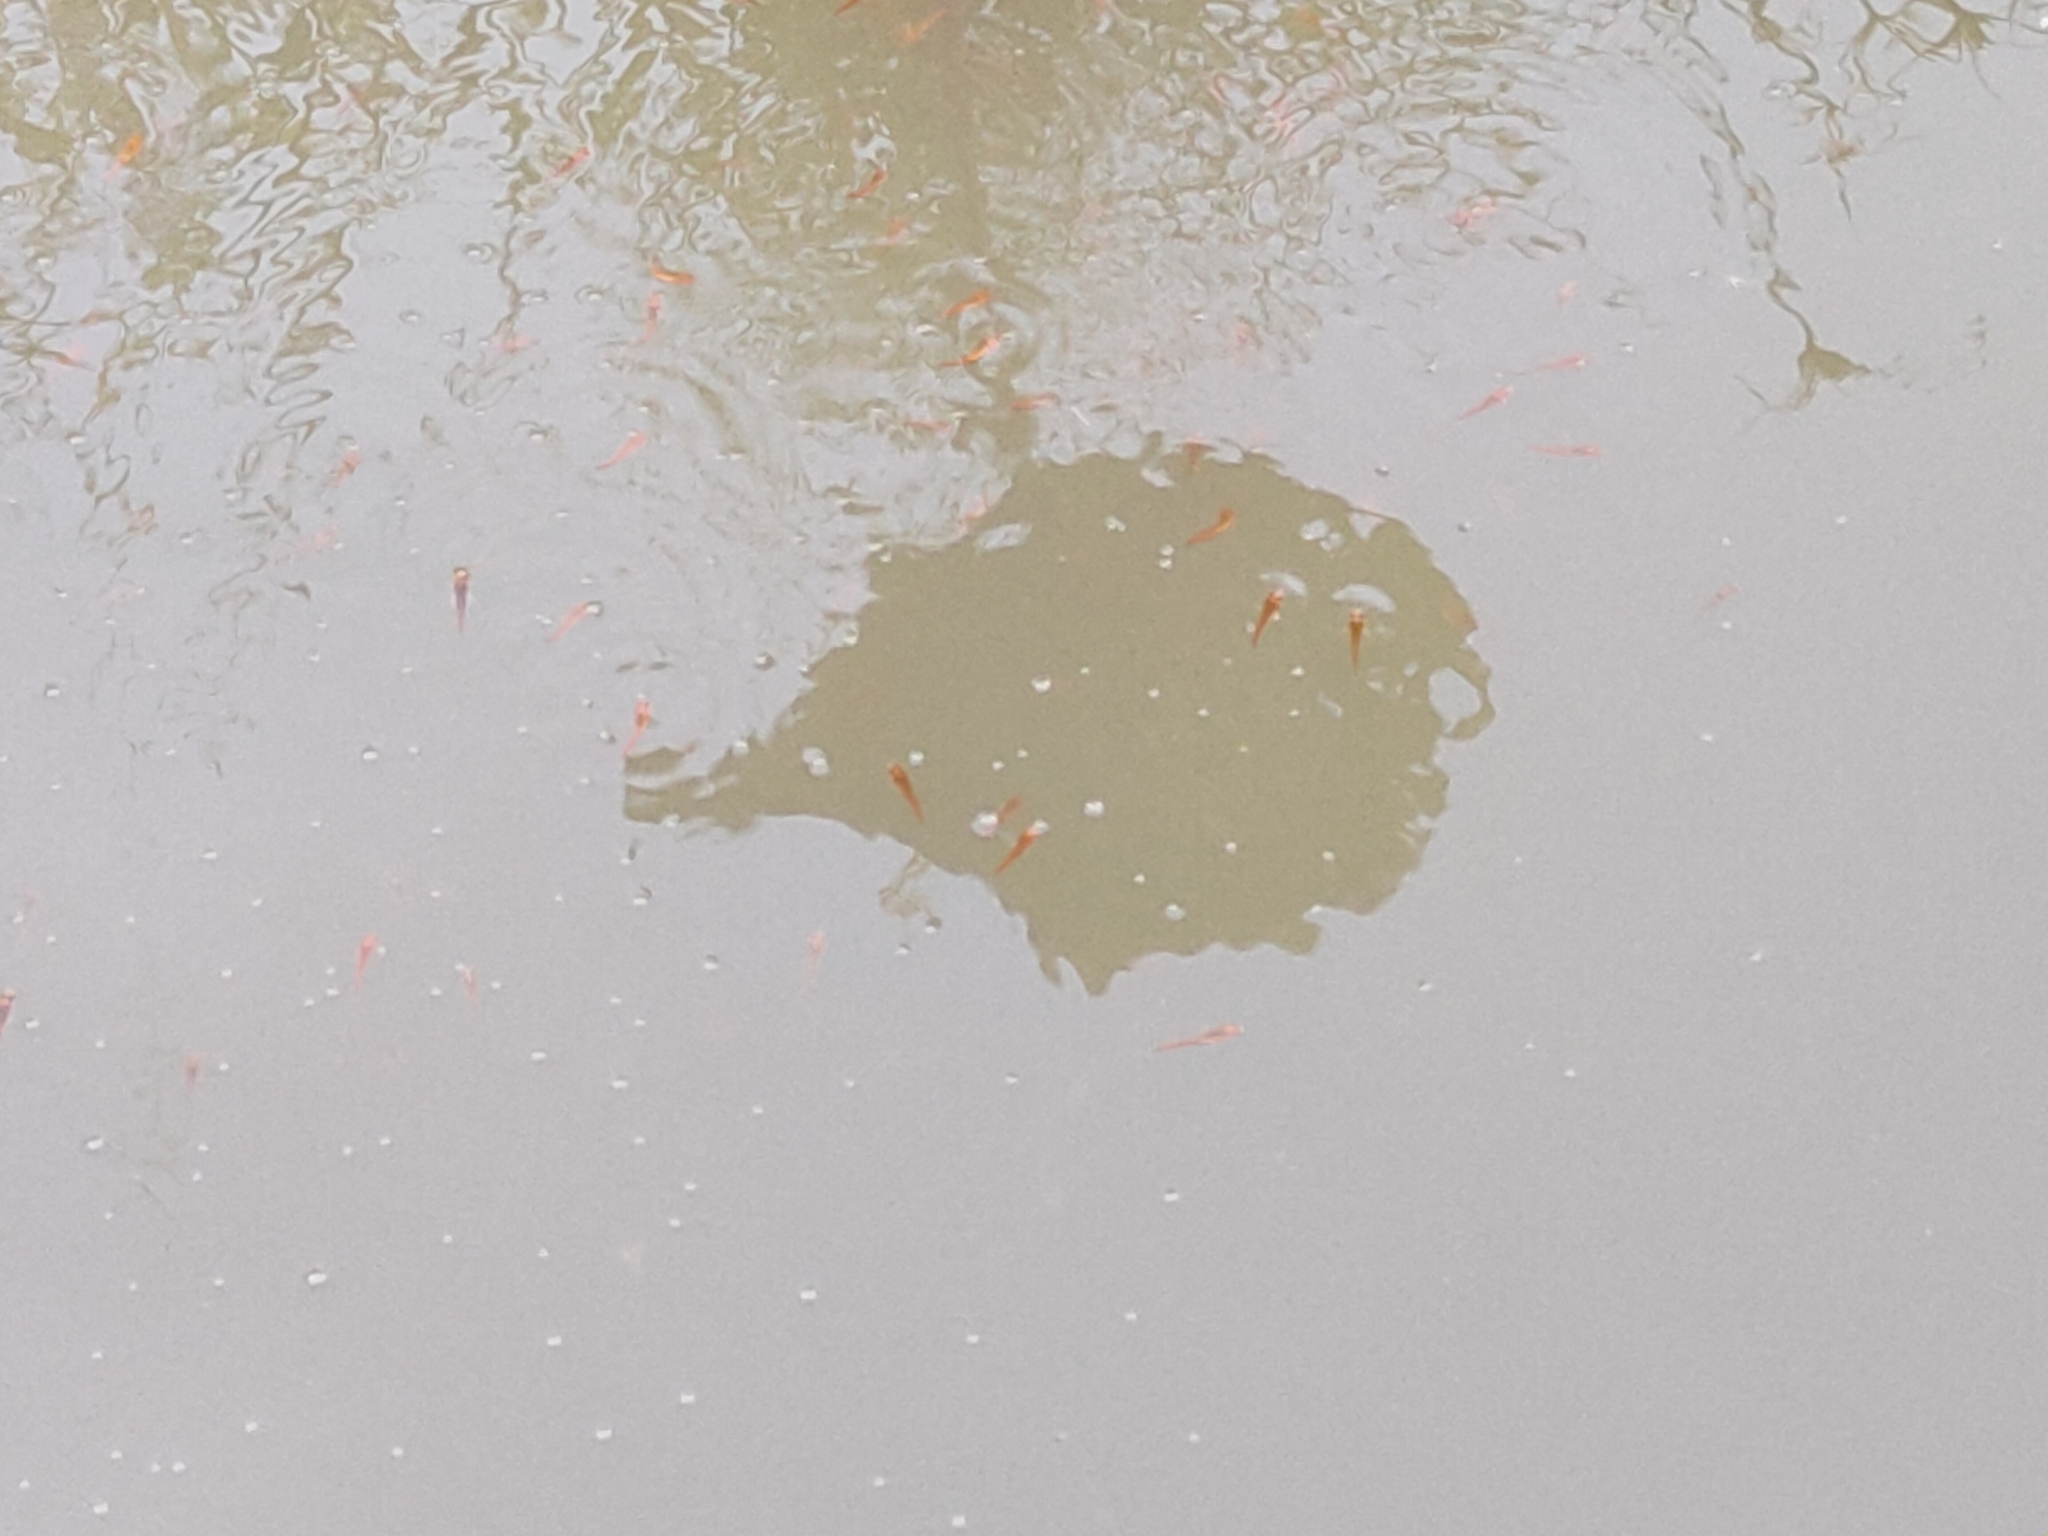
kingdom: Animalia
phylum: Chordata
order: Perciformes
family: Channidae
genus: Channa
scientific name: Channa striata
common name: Striped snakehead
